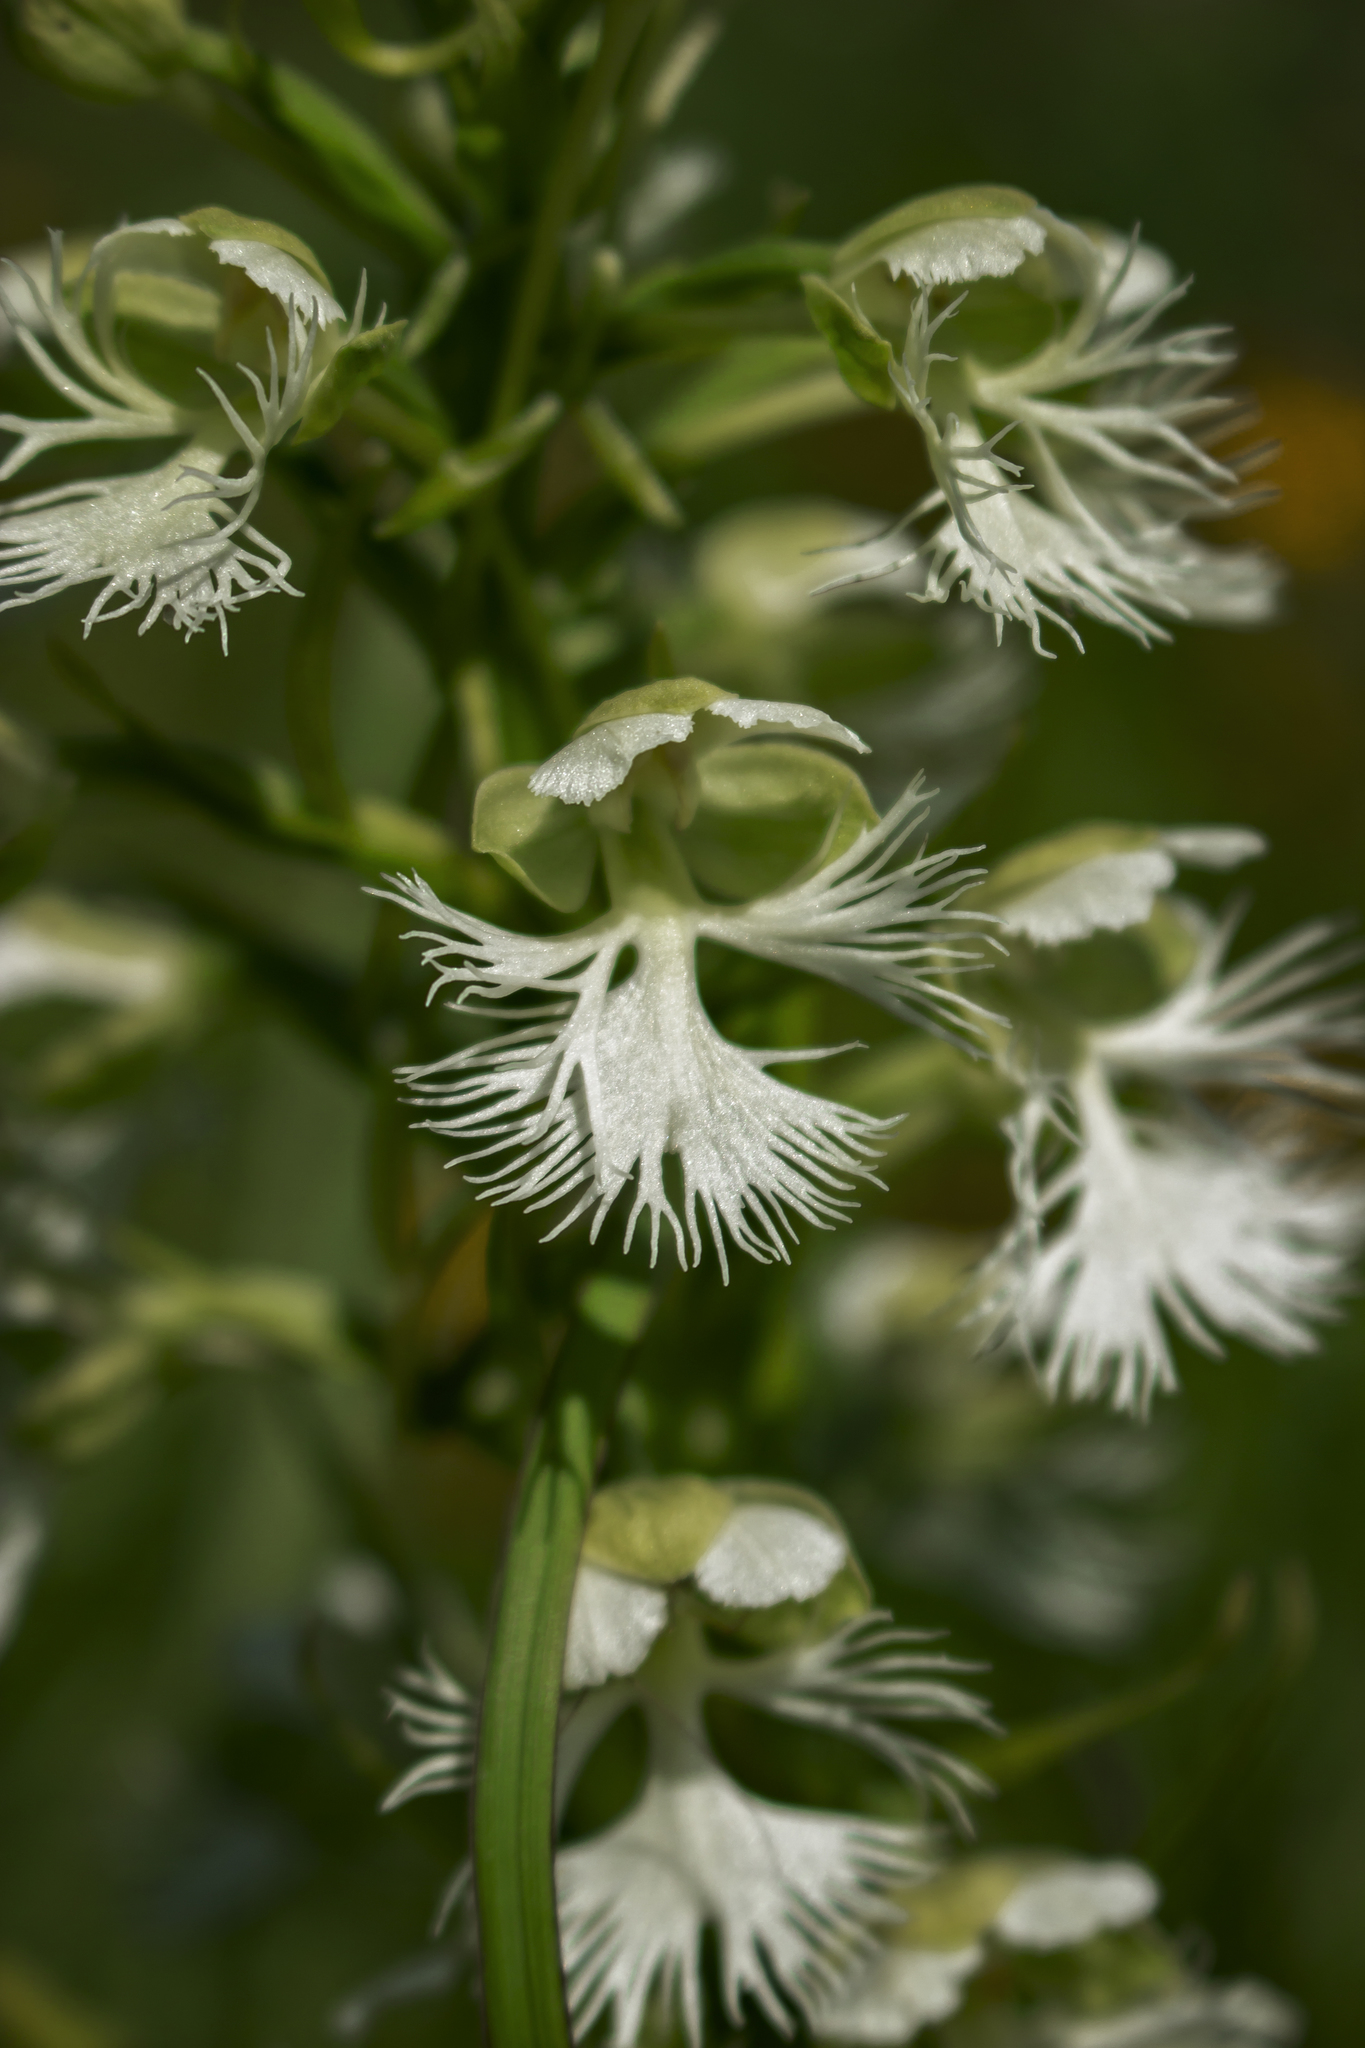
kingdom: Plantae
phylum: Tracheophyta
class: Liliopsida
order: Asparagales
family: Orchidaceae
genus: Platanthera
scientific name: Platanthera leucophaea
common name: Eastern prairie white-fringed orchid
